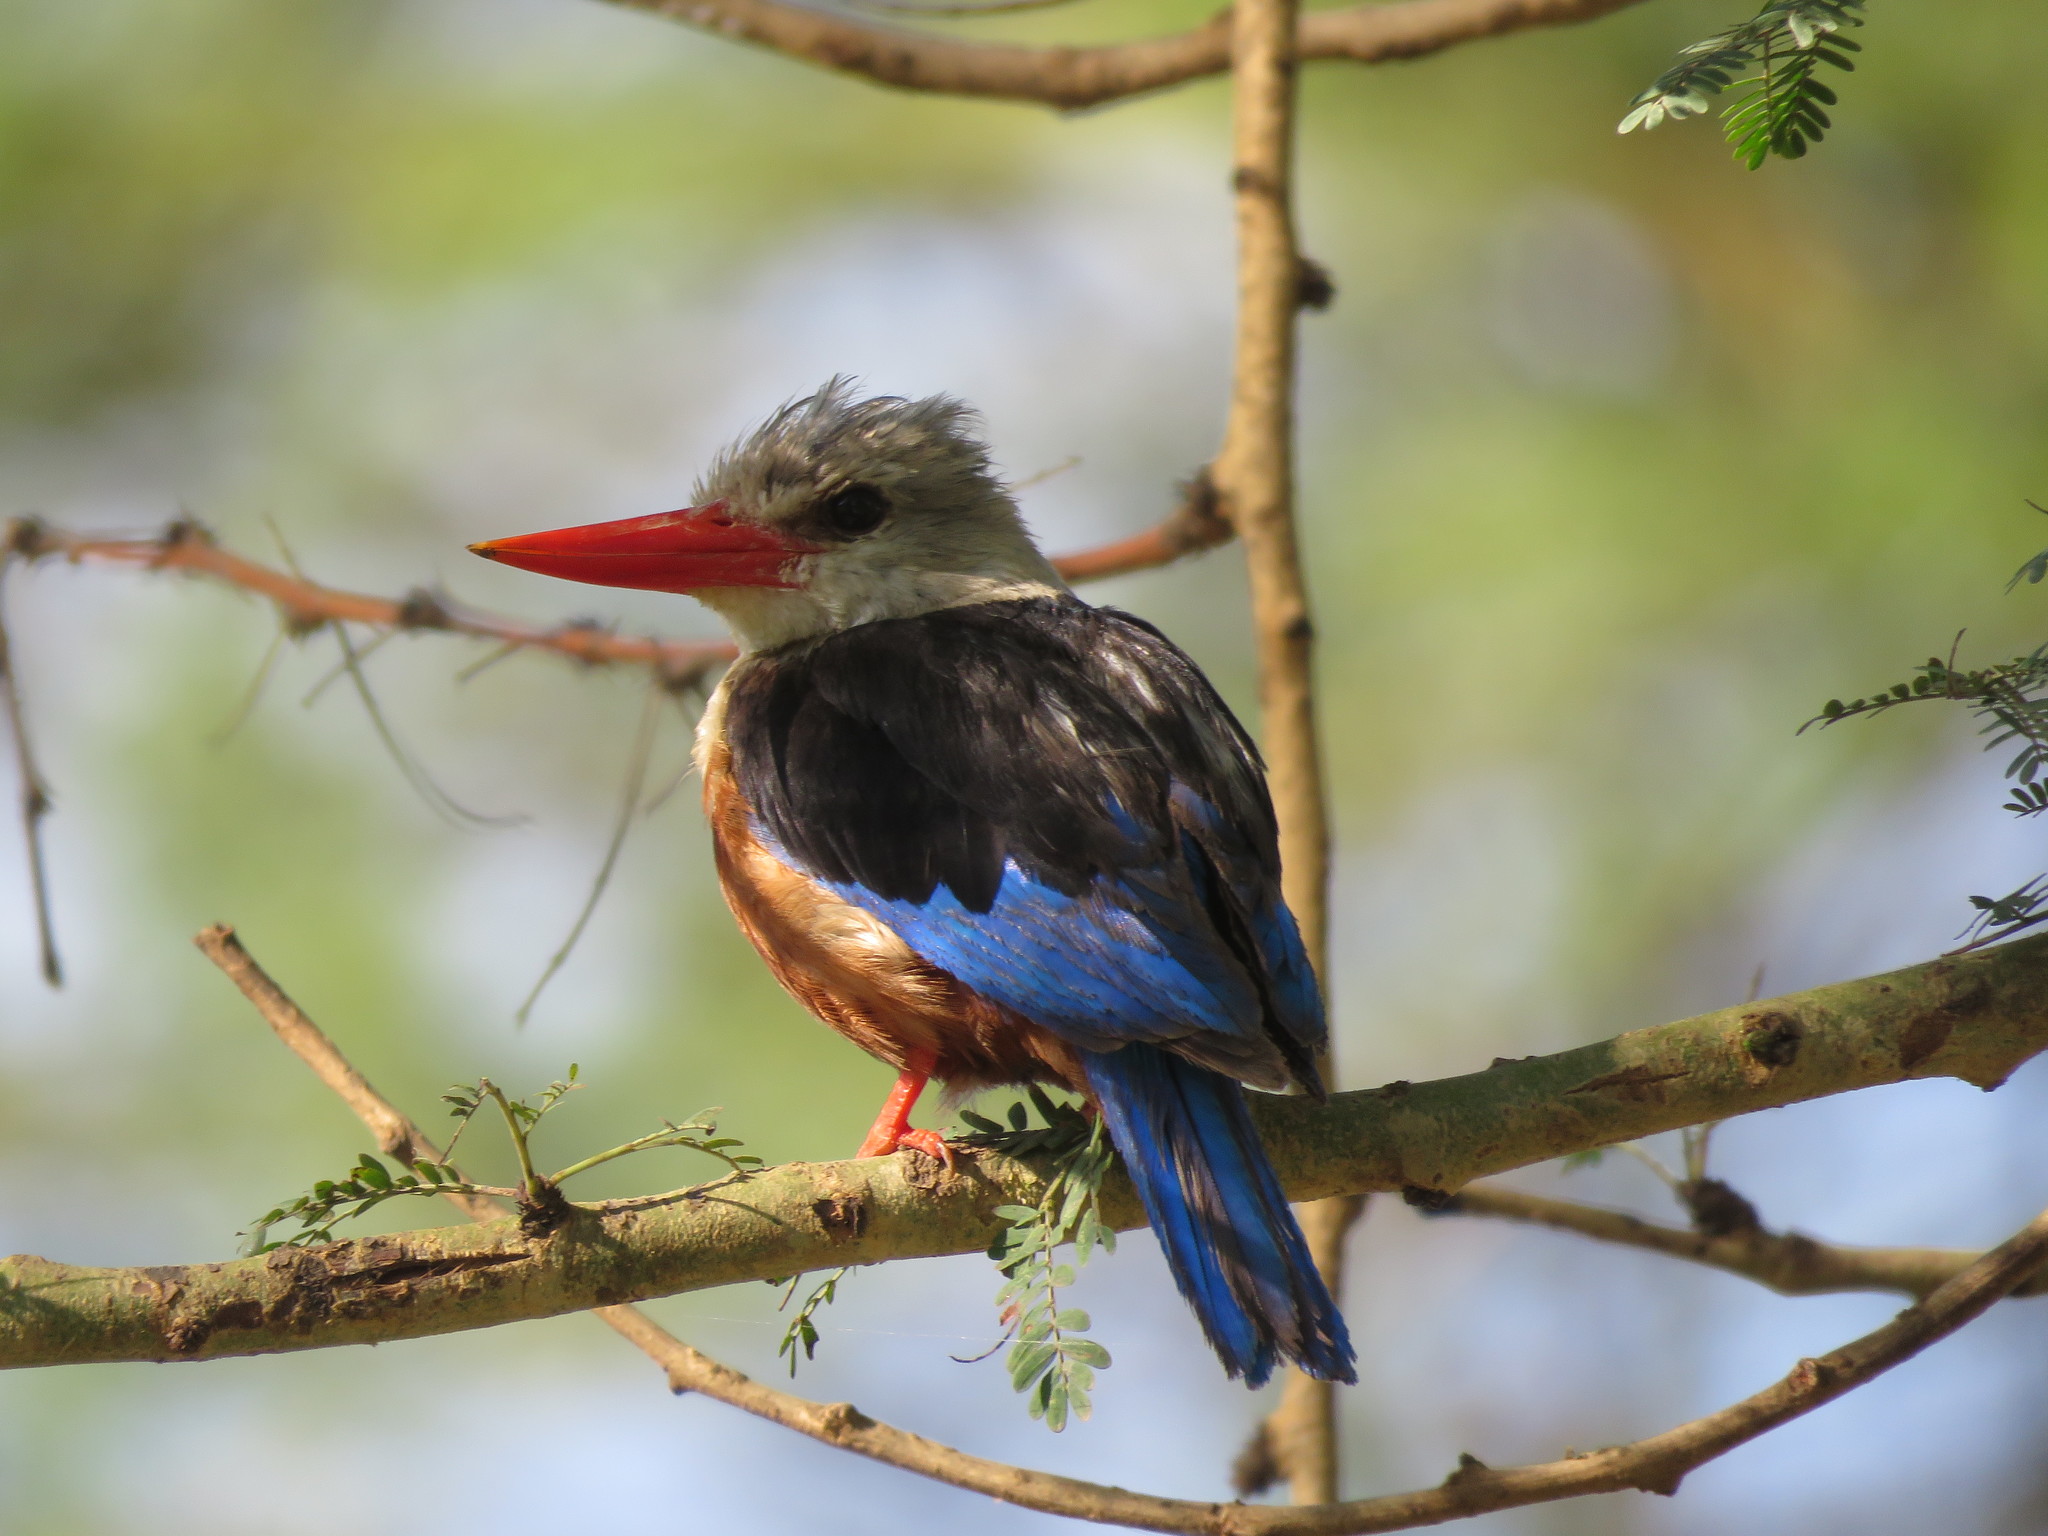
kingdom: Animalia
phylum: Chordata
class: Aves
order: Coraciiformes
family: Alcedinidae
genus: Halcyon
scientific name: Halcyon leucocephala
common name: Grey-headed kingfisher
